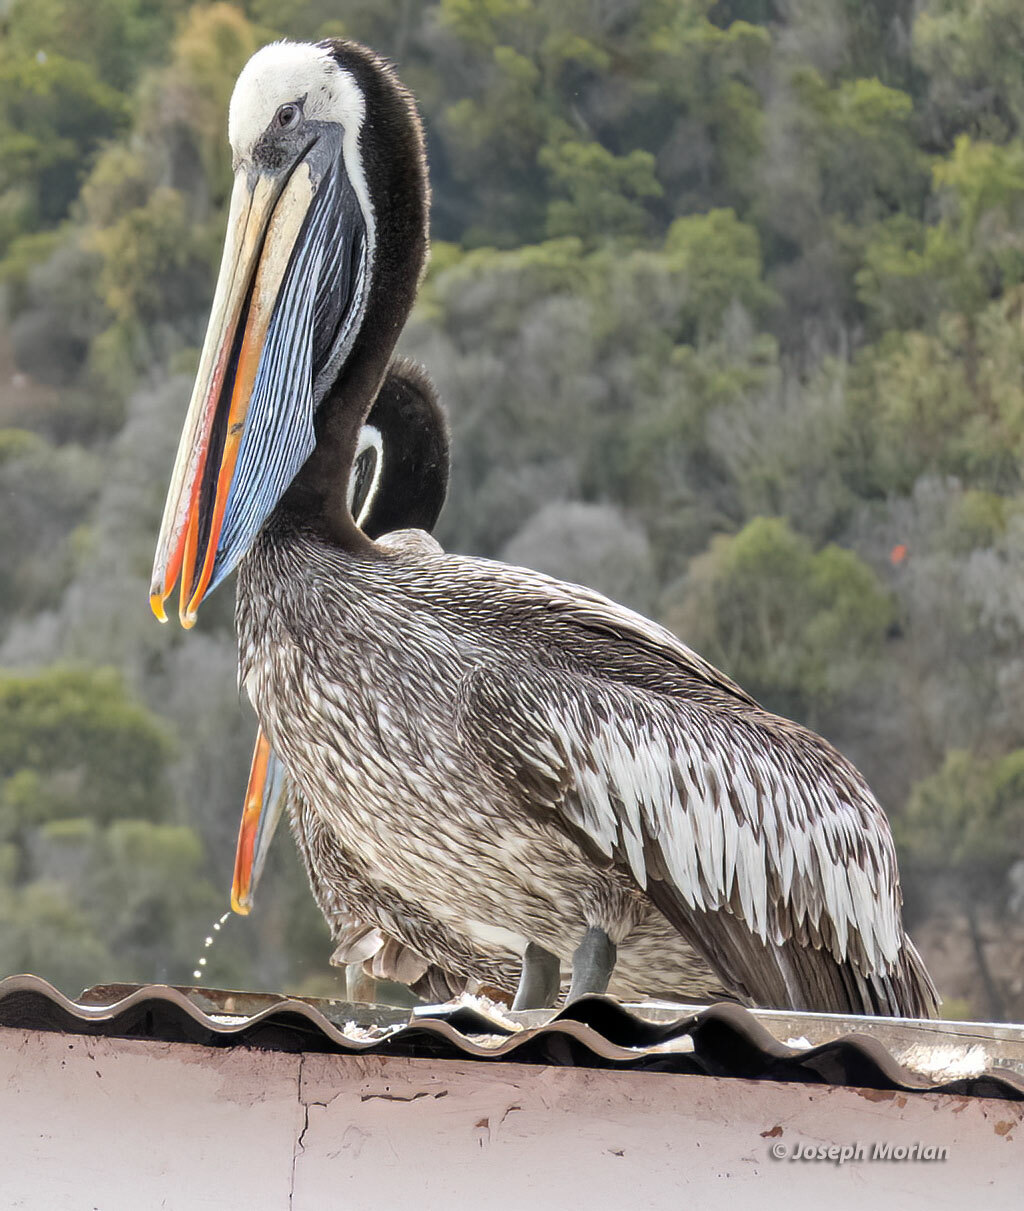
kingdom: Animalia
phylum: Chordata
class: Aves
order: Pelecaniformes
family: Pelecanidae
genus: Pelecanus
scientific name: Pelecanus thagus
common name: Peruvian pelican
